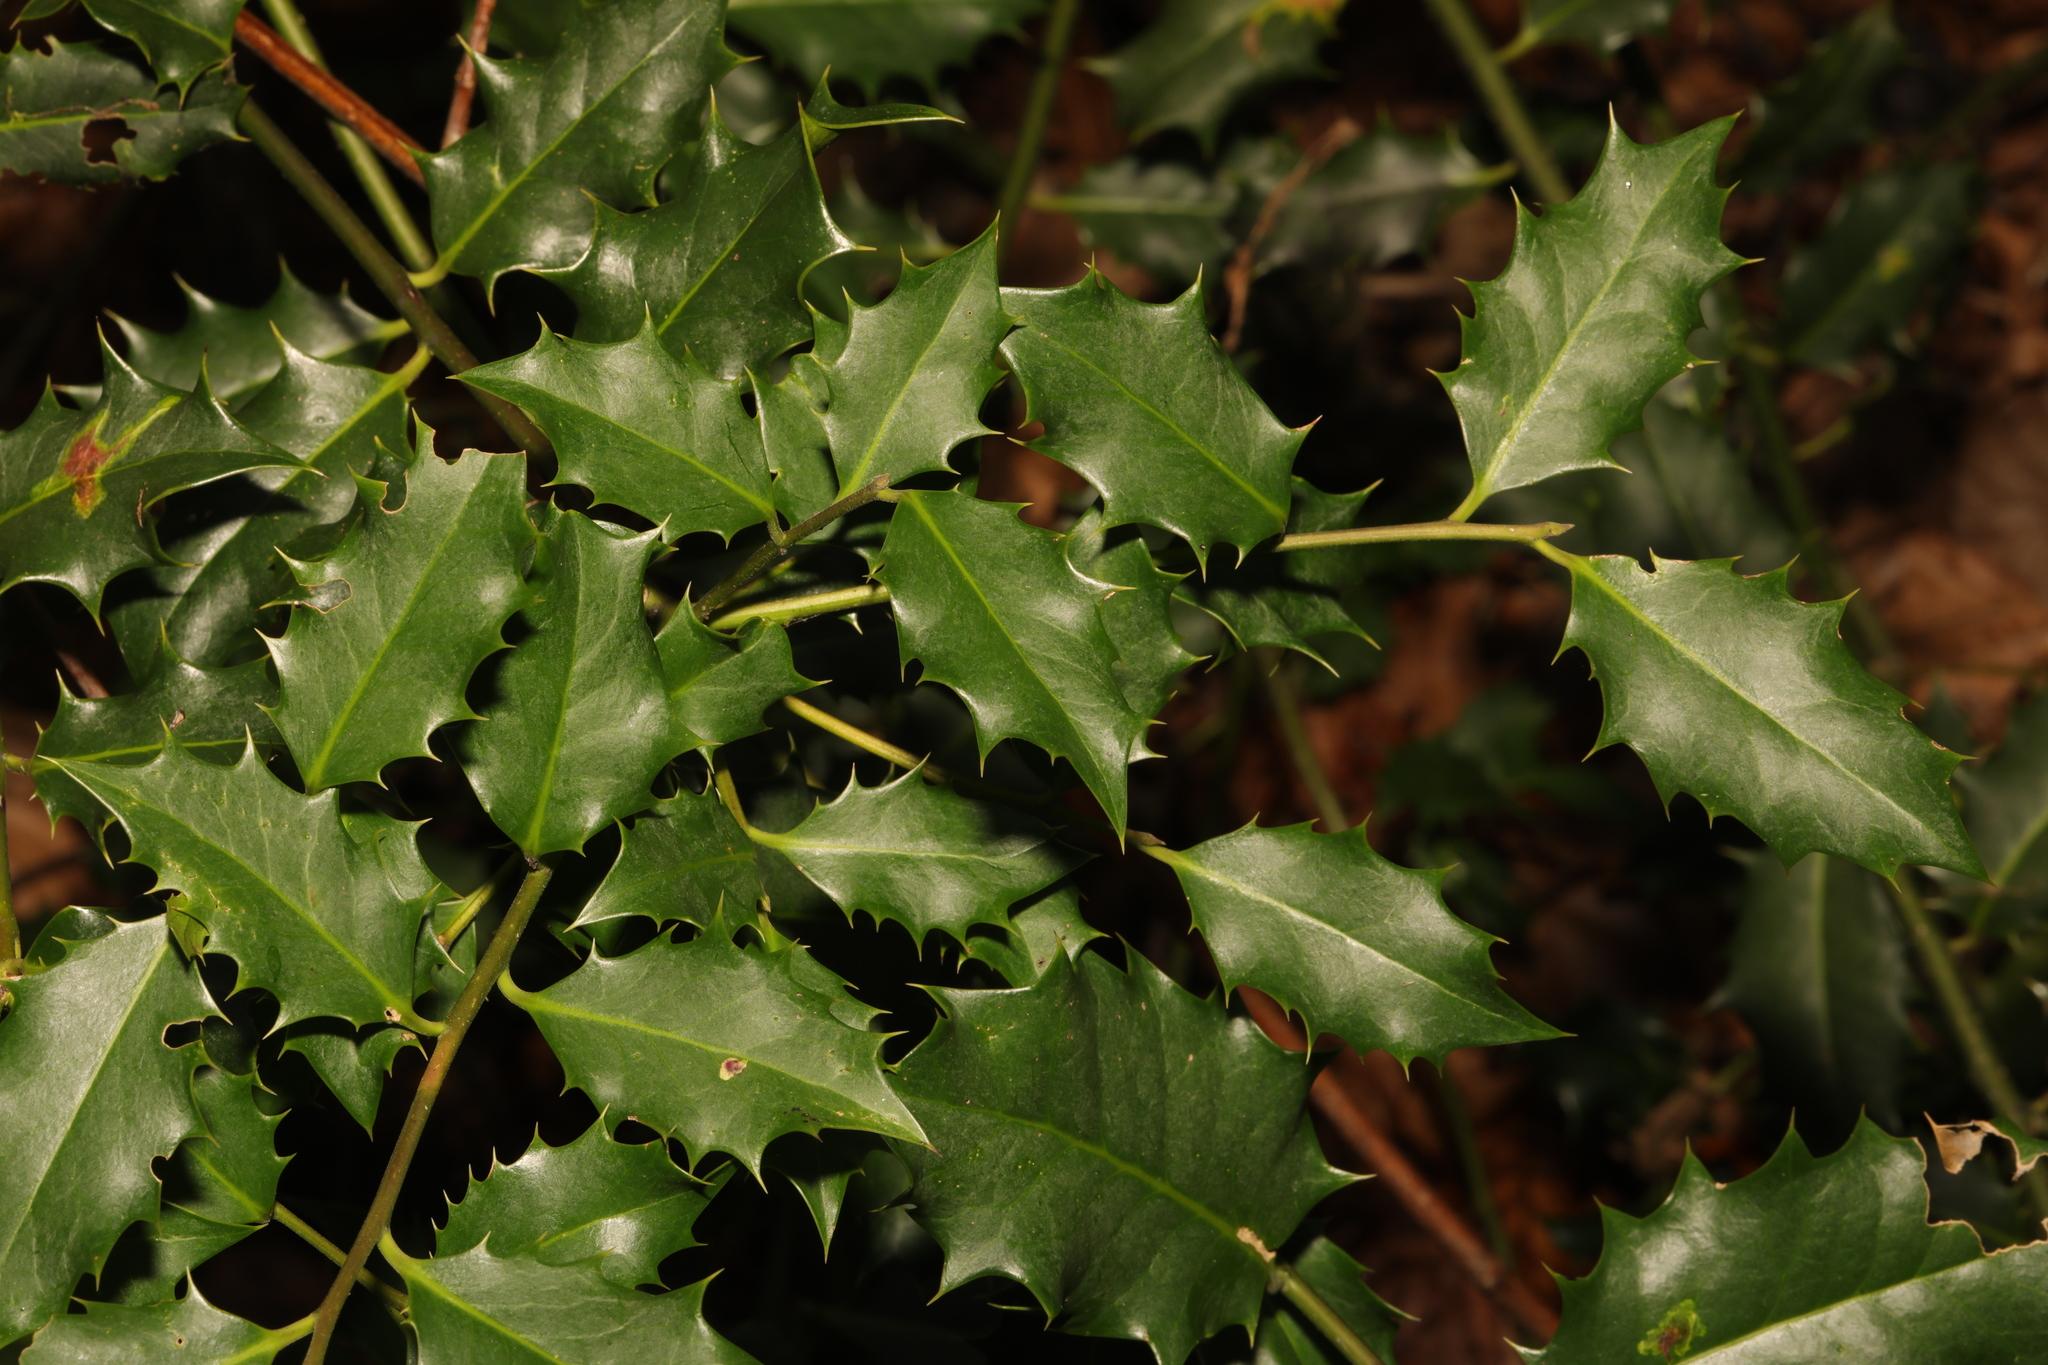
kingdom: Plantae
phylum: Tracheophyta
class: Magnoliopsida
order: Aquifoliales
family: Aquifoliaceae
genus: Ilex
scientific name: Ilex aquifolium
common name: English holly
